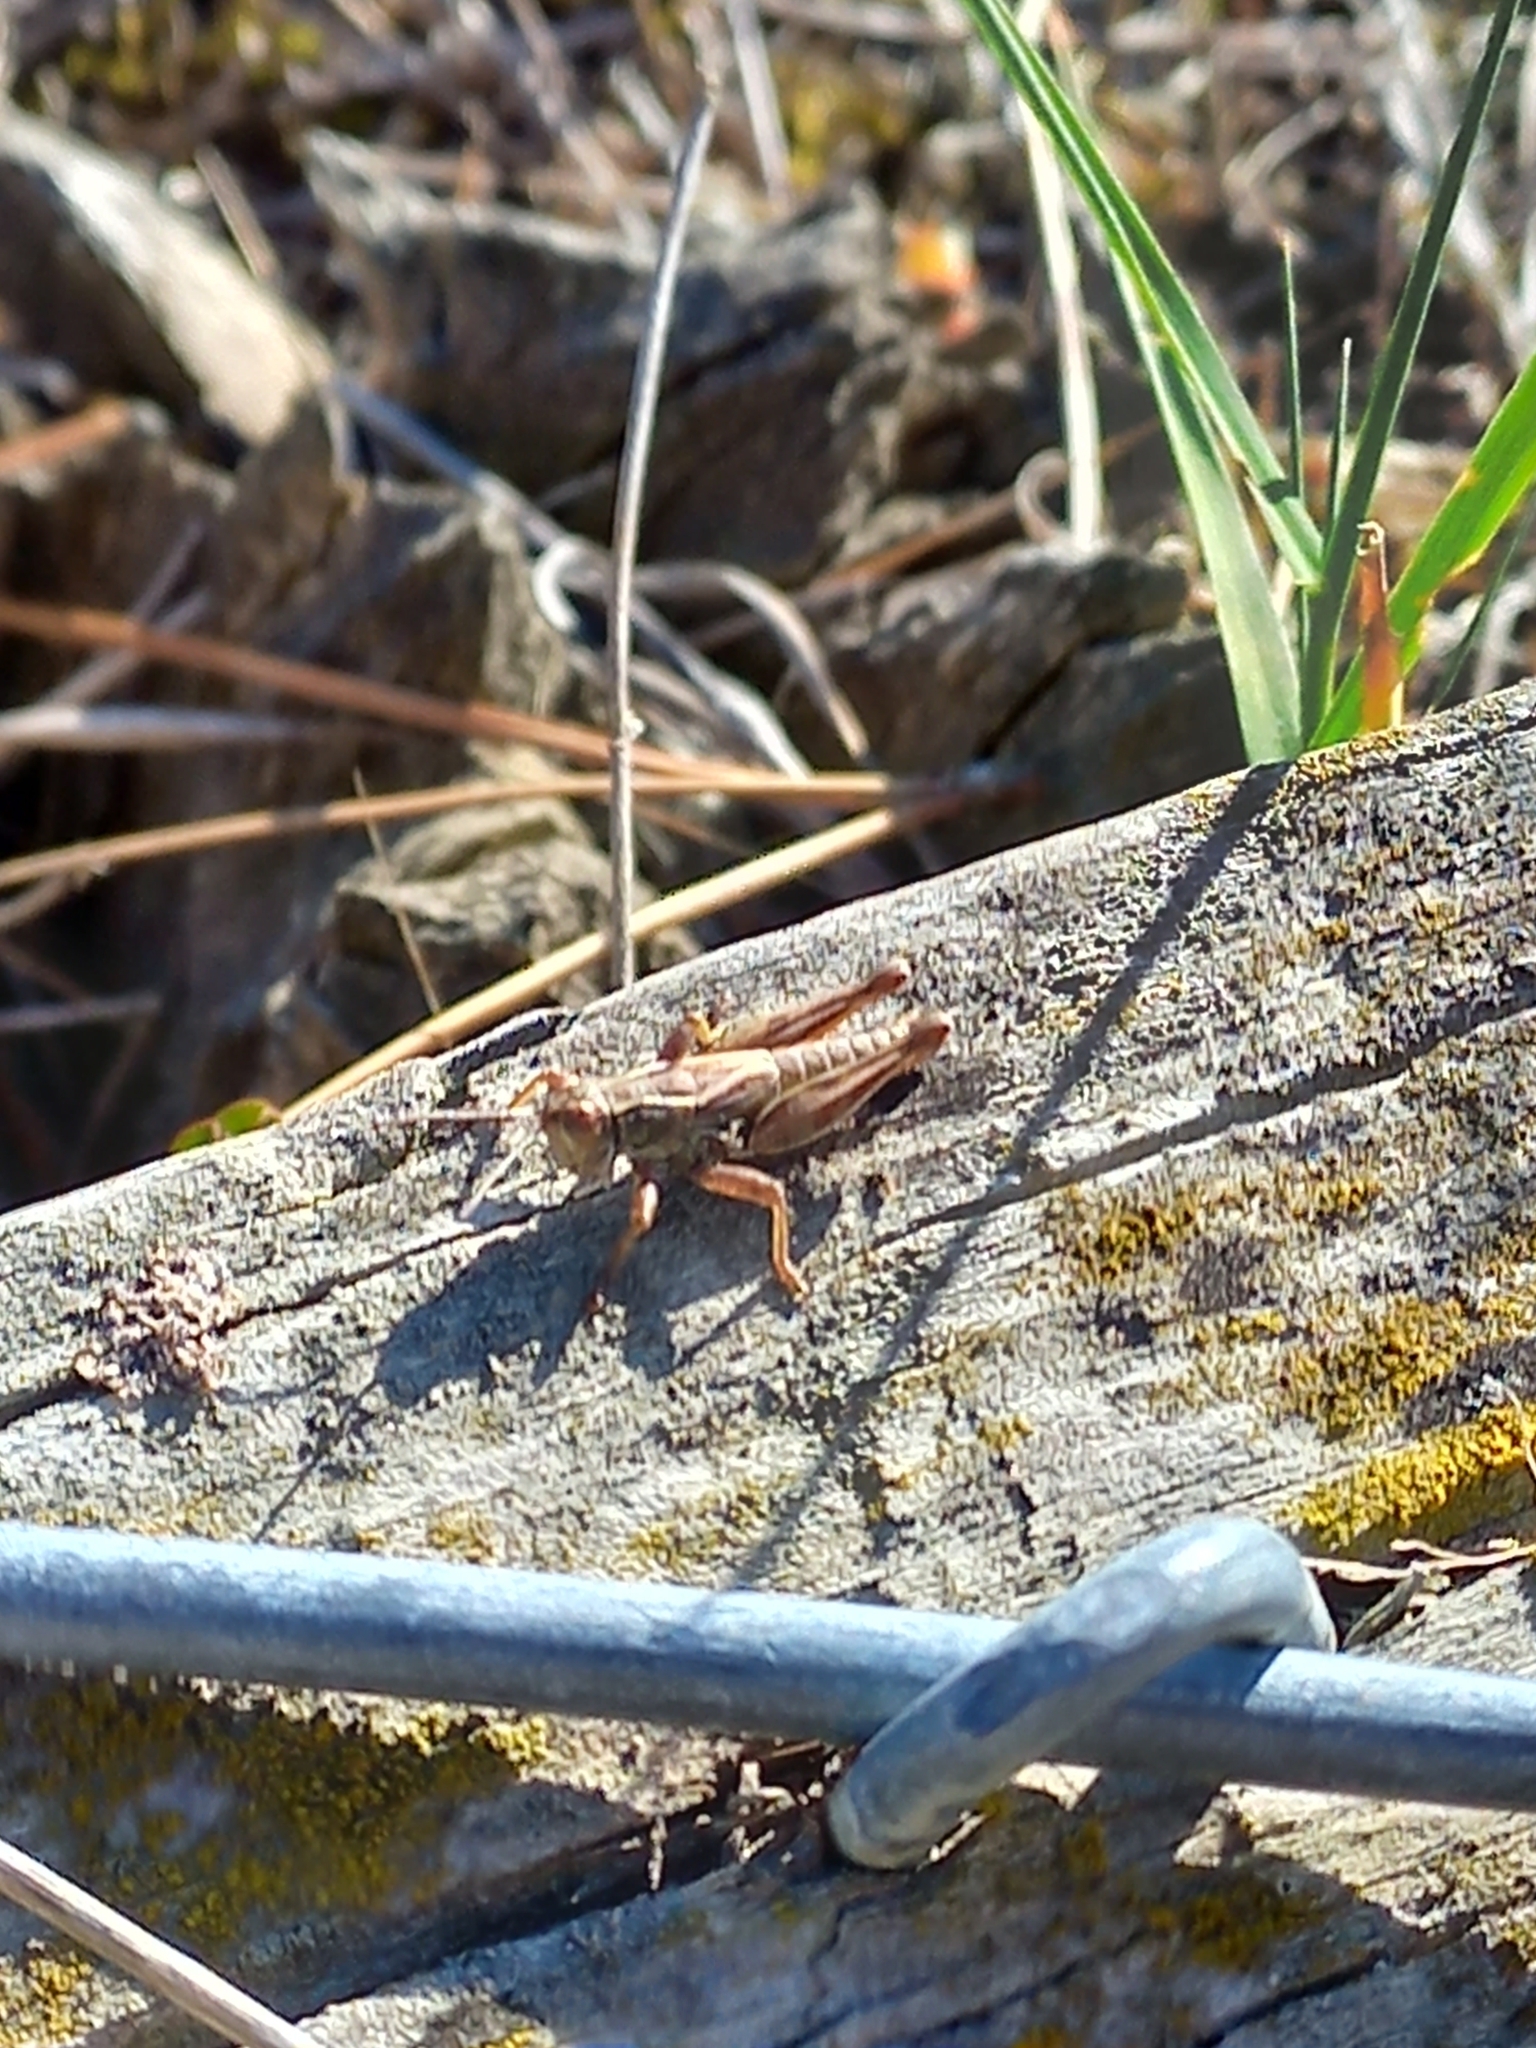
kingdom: Animalia
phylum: Arthropoda
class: Insecta
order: Orthoptera
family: Acrididae
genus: Phaulacridium
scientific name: Phaulacridium marginale
